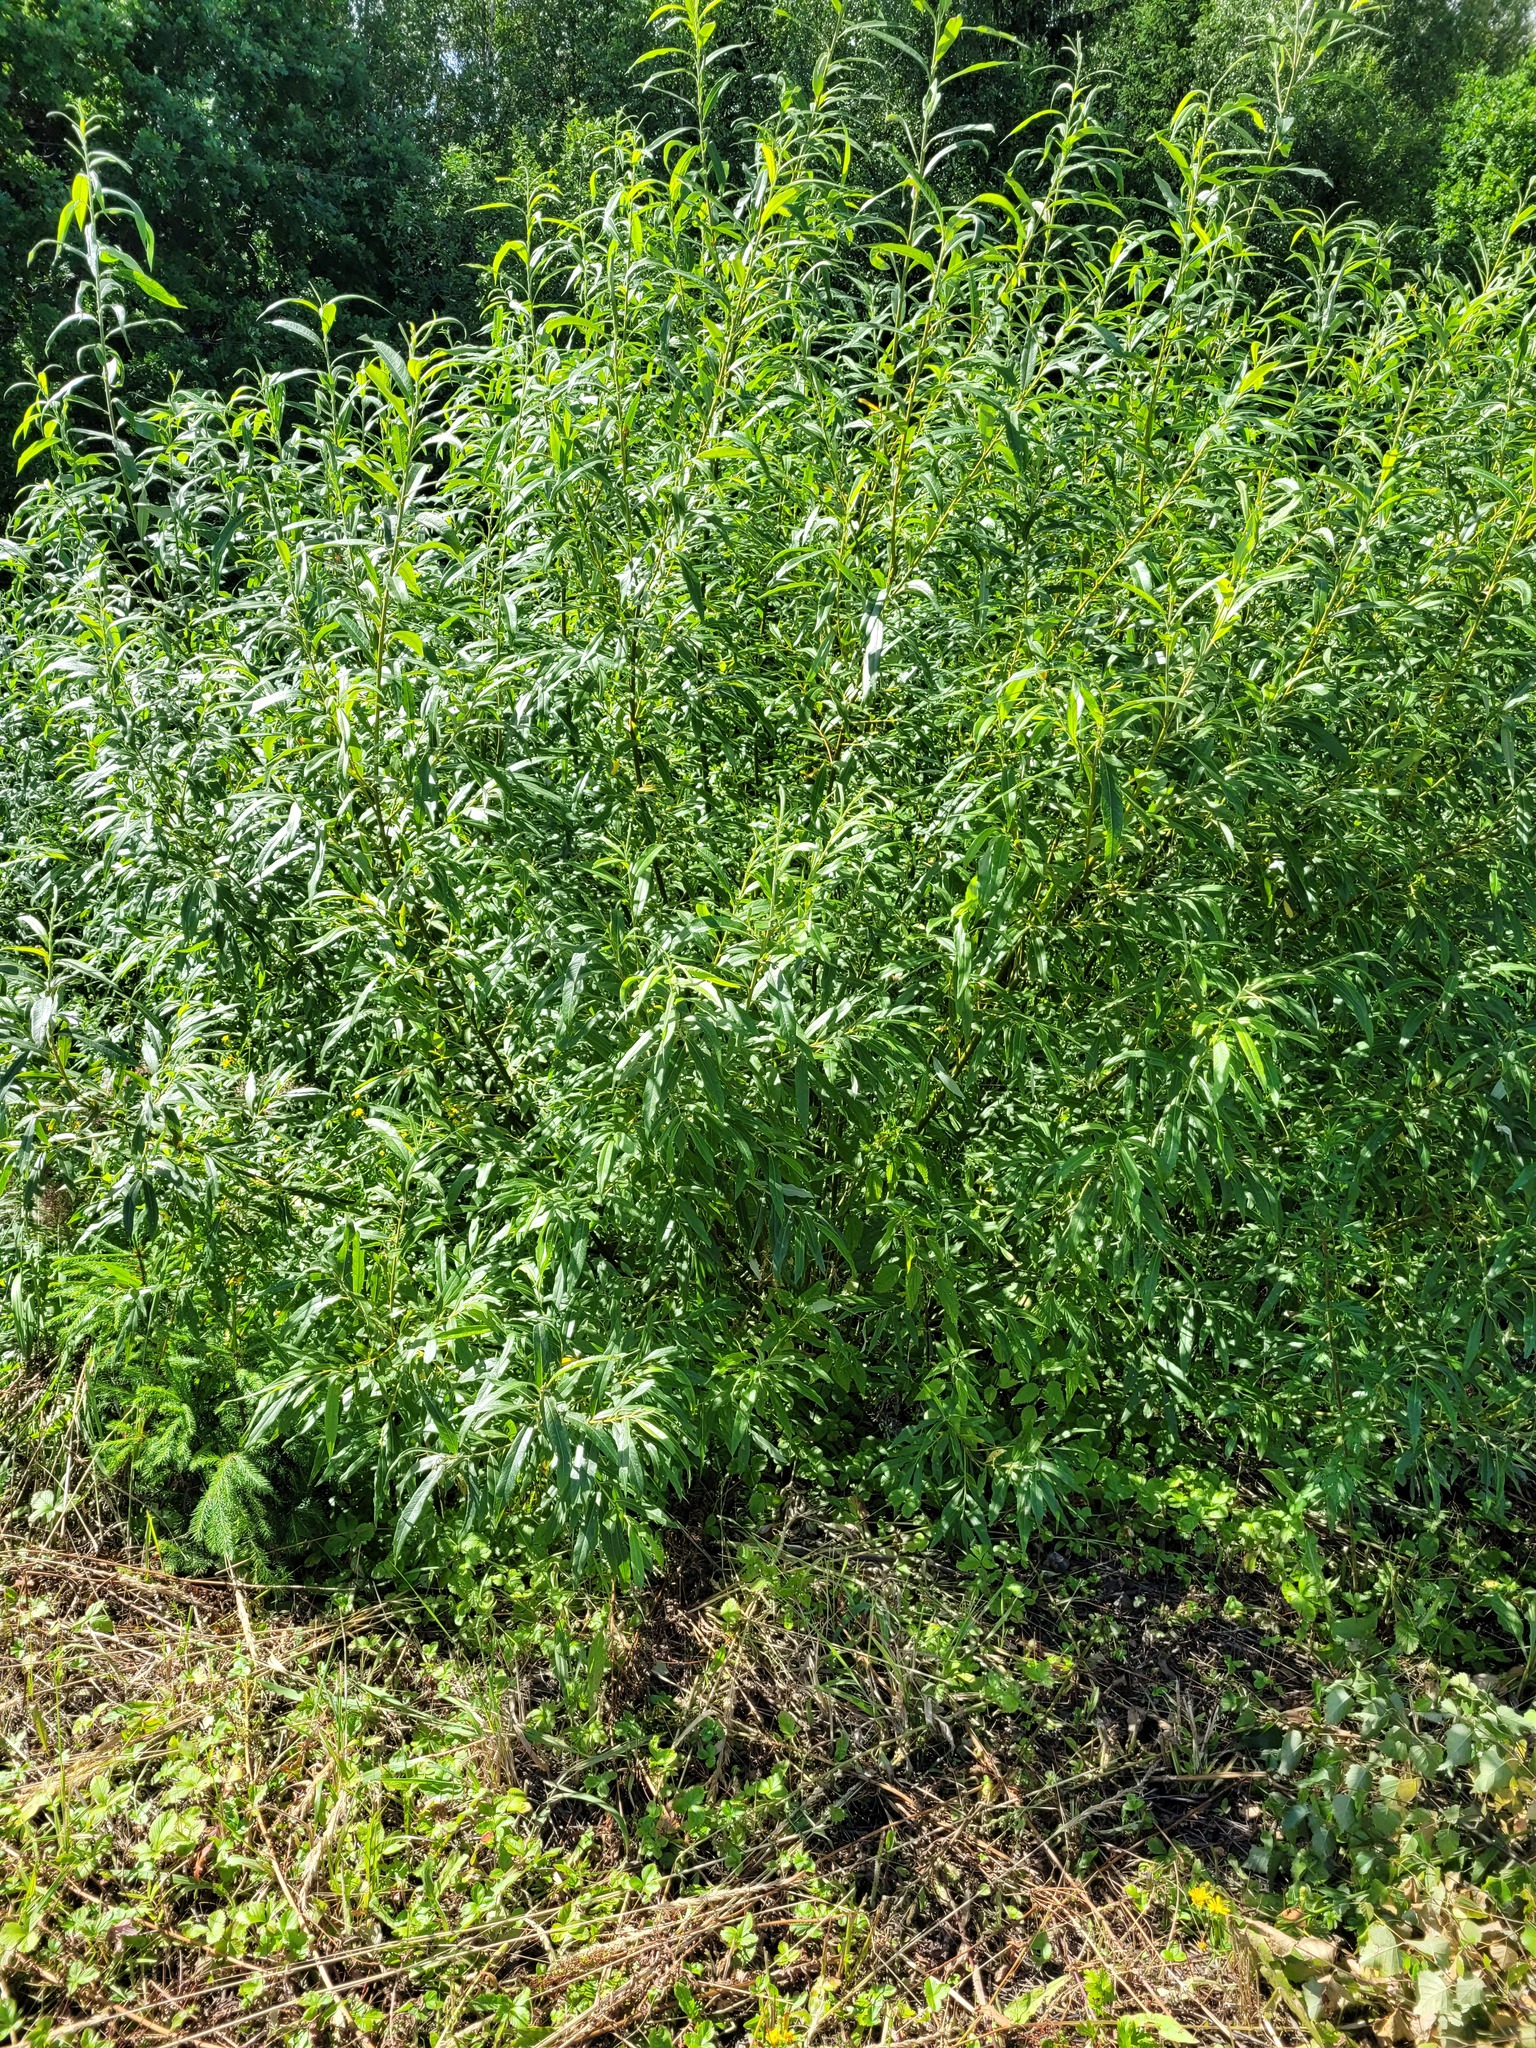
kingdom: Plantae
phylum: Tracheophyta
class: Magnoliopsida
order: Malpighiales
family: Salicaceae
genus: Salix
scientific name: Salix gmelinii
